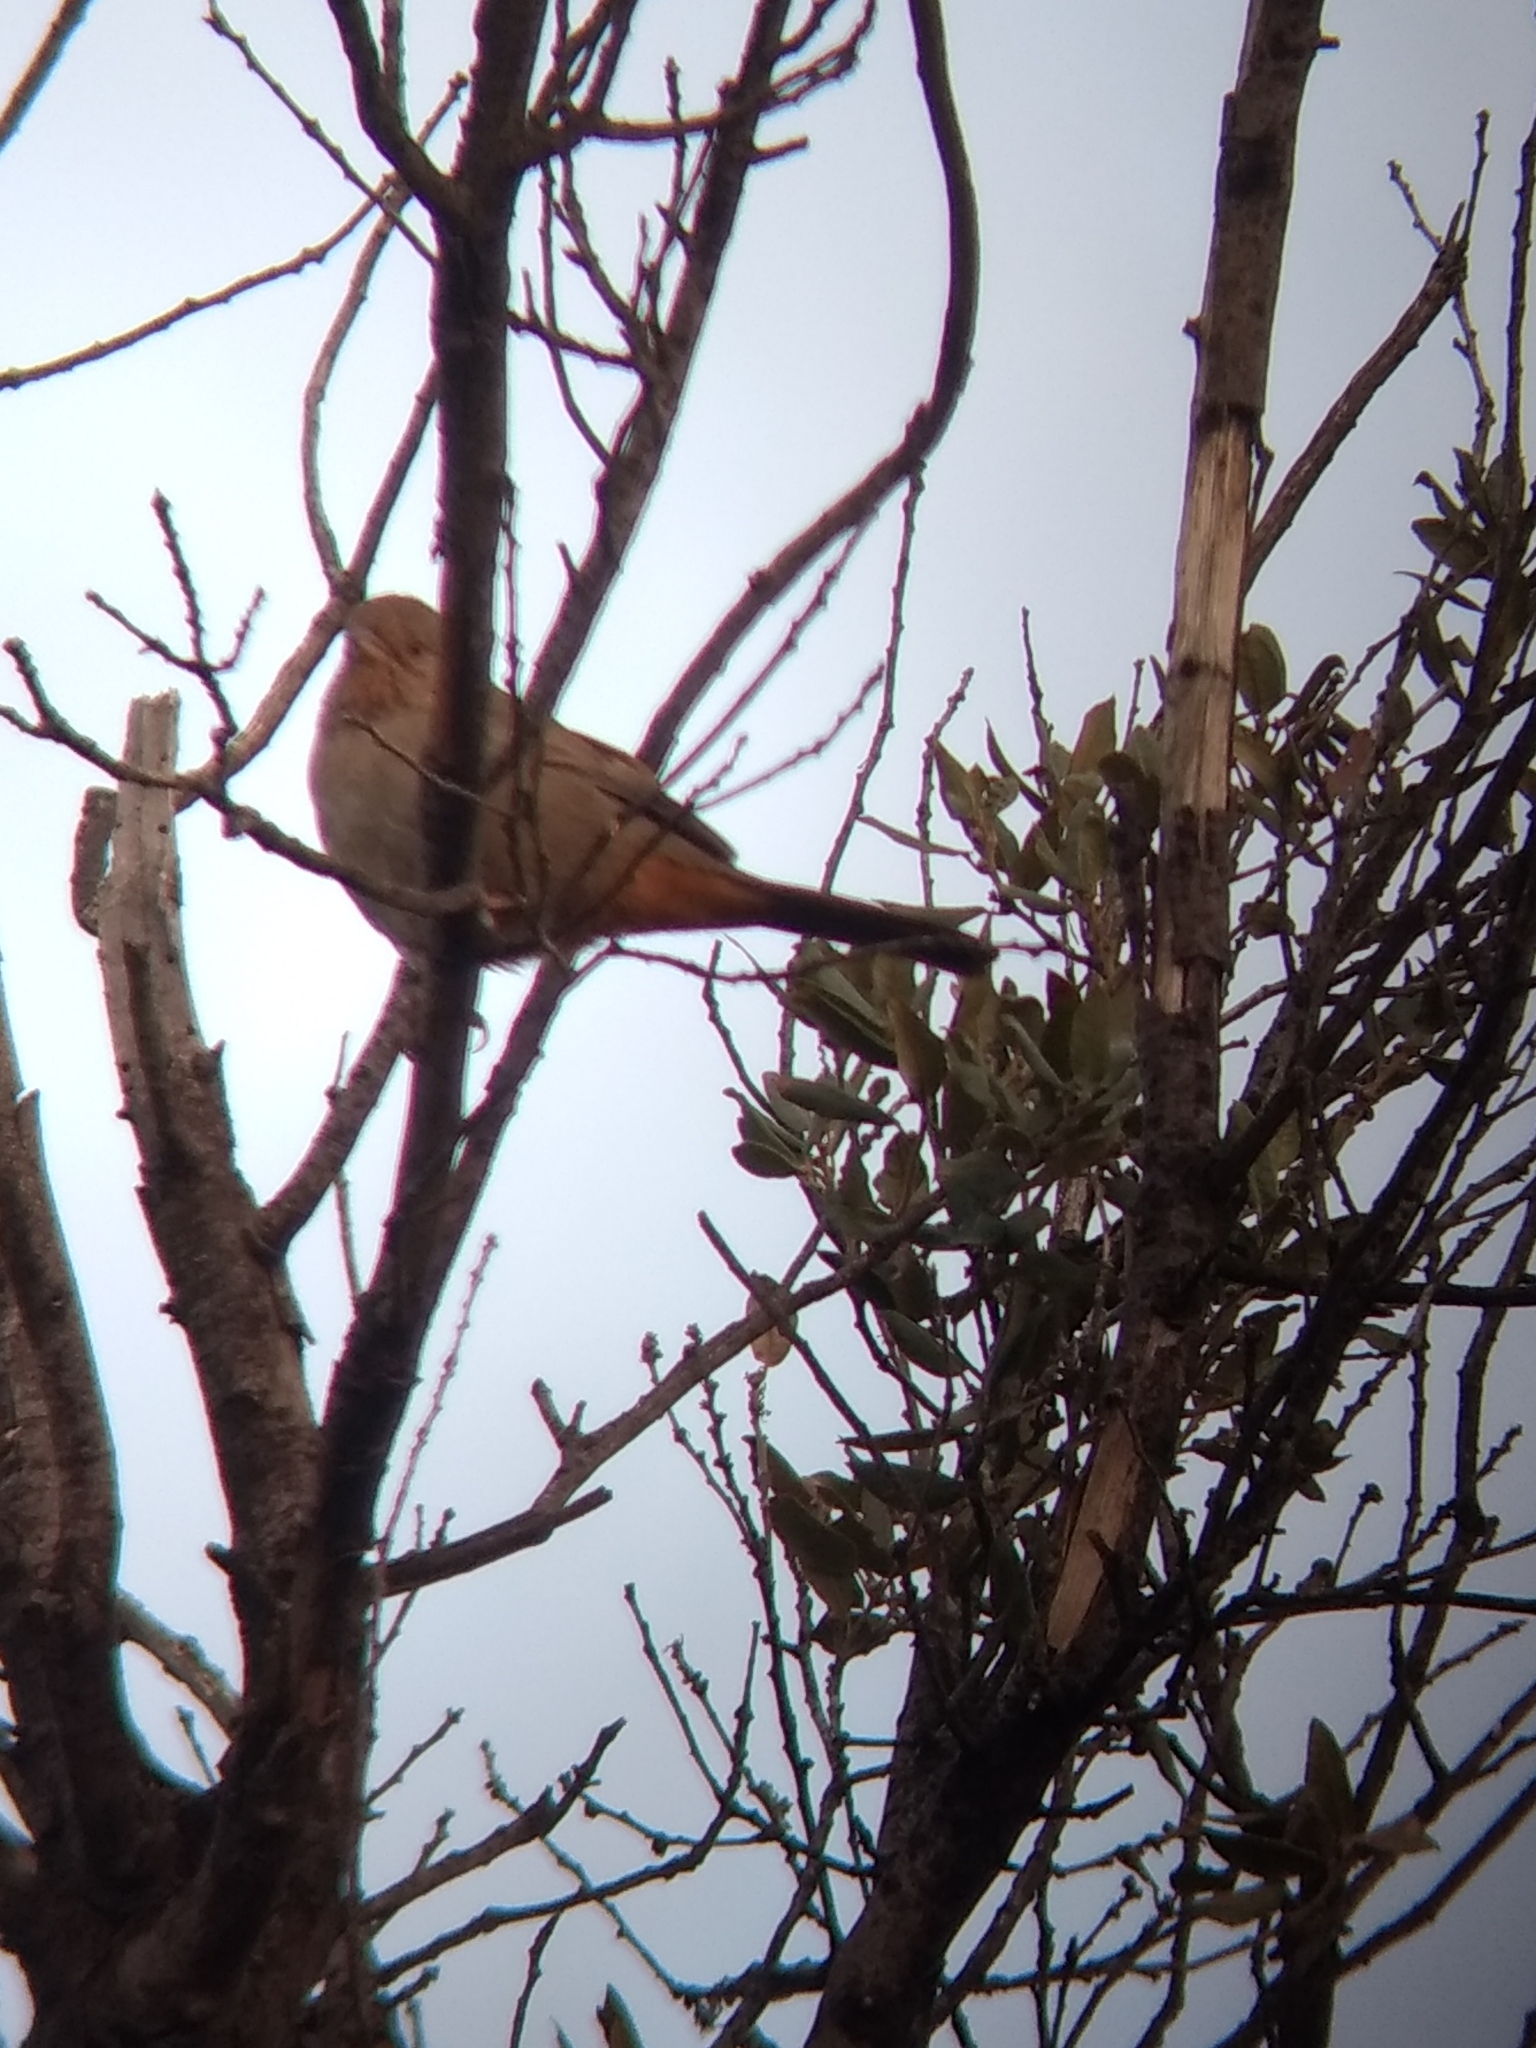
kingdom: Animalia
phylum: Chordata
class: Aves
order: Passeriformes
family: Passerellidae
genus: Melozone
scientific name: Melozone crissalis
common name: California towhee
